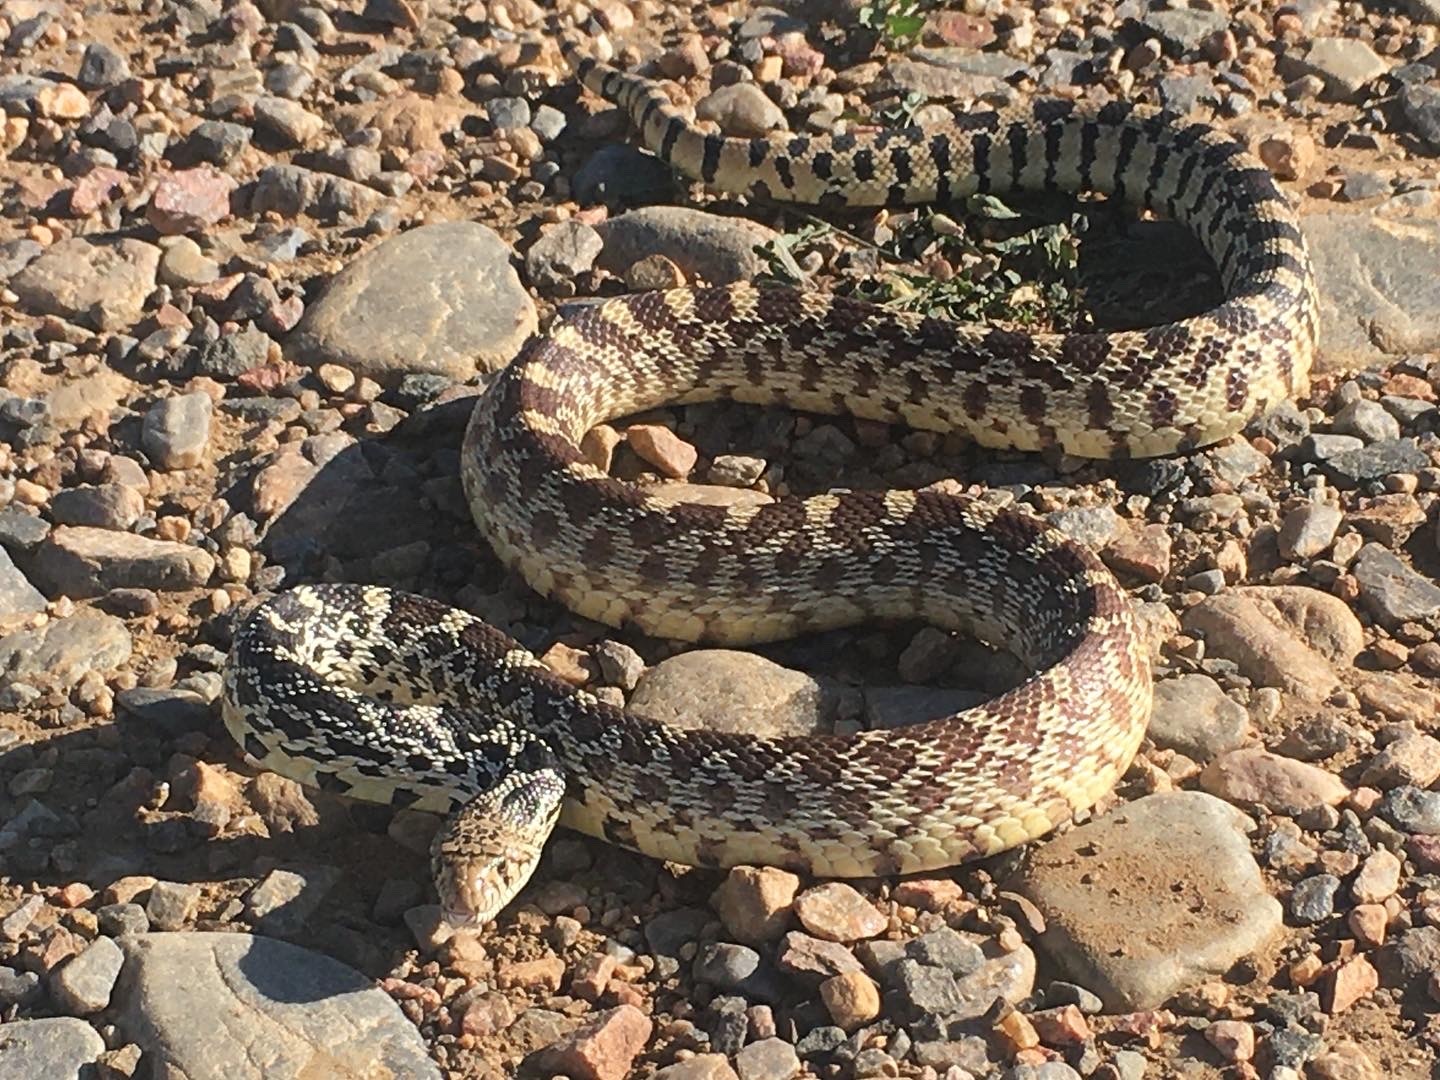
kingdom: Animalia
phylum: Chordata
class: Squamata
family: Colubridae
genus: Pituophis
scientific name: Pituophis catenifer
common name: Gopher snake
